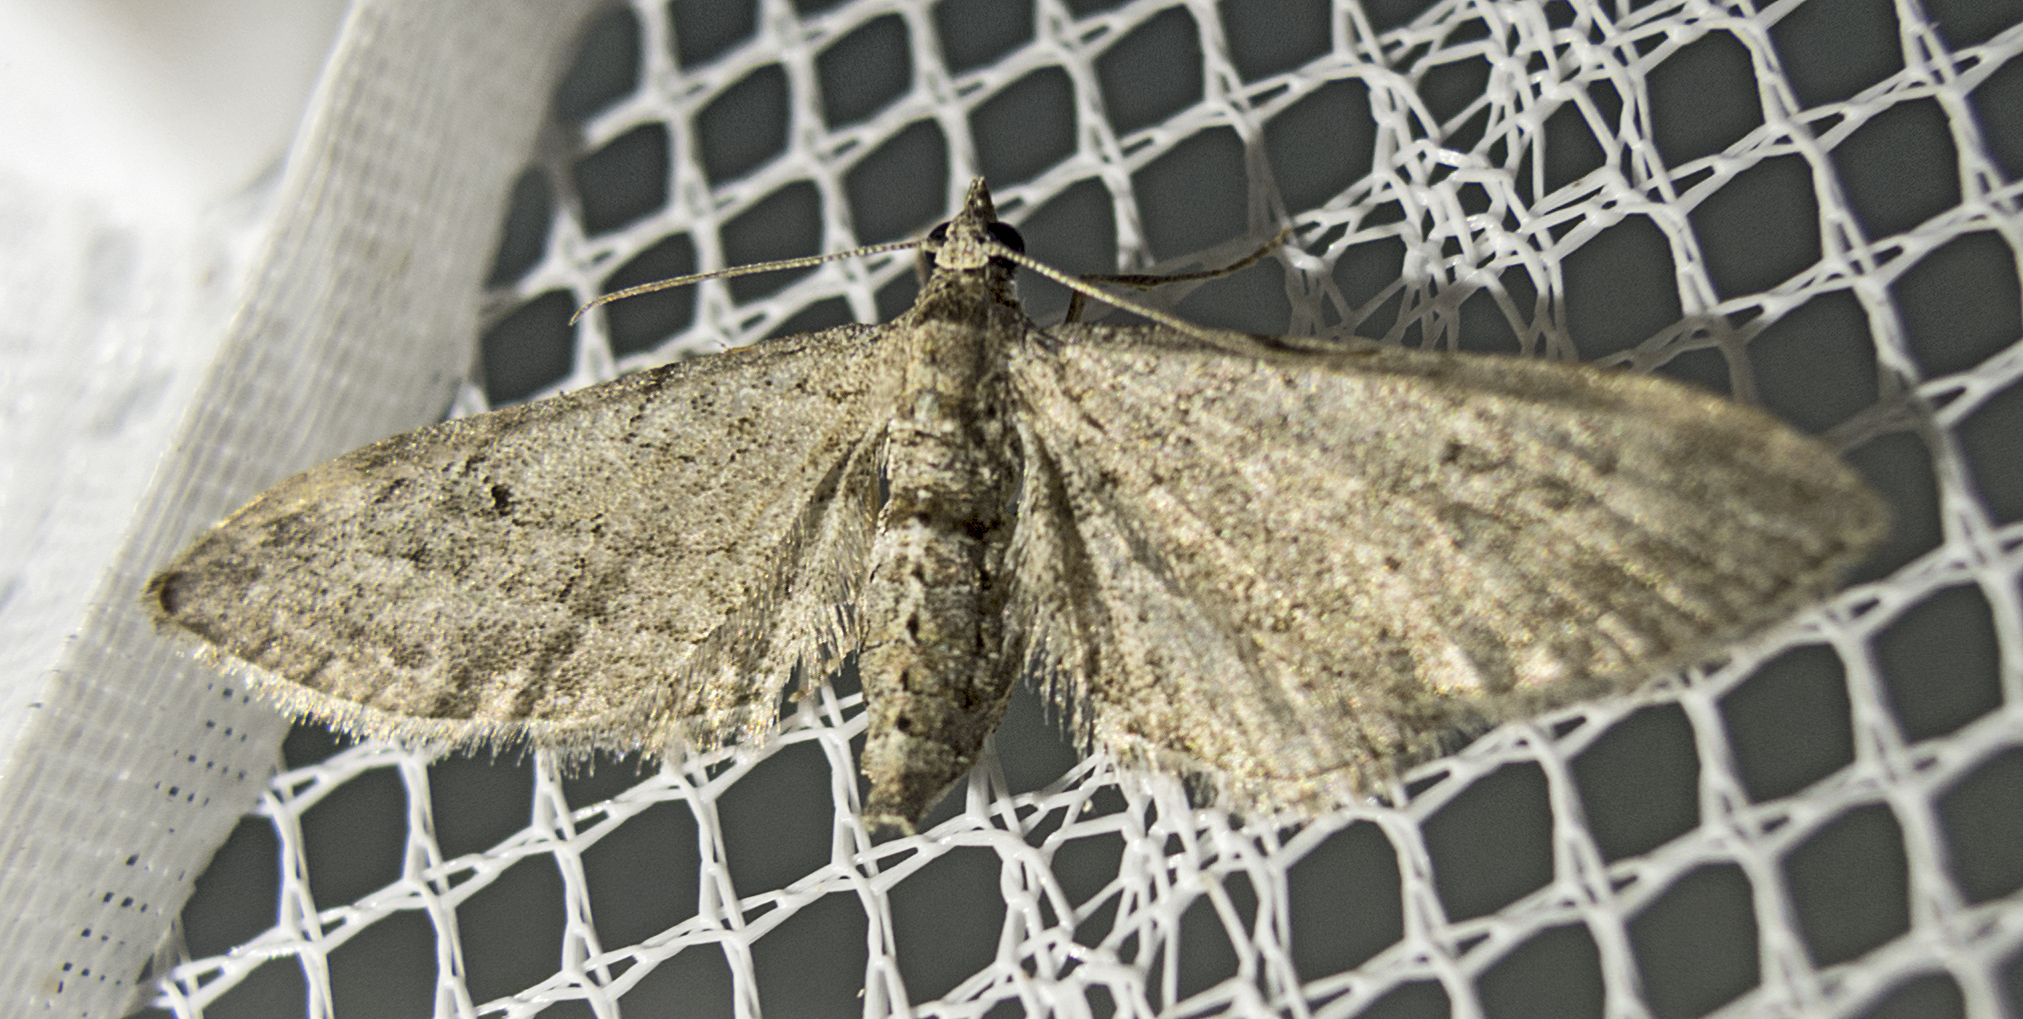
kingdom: Animalia
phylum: Arthropoda
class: Insecta
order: Lepidoptera
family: Geometridae
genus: Eupithecia
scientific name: Eupithecia innotata
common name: Angle-barred pug
